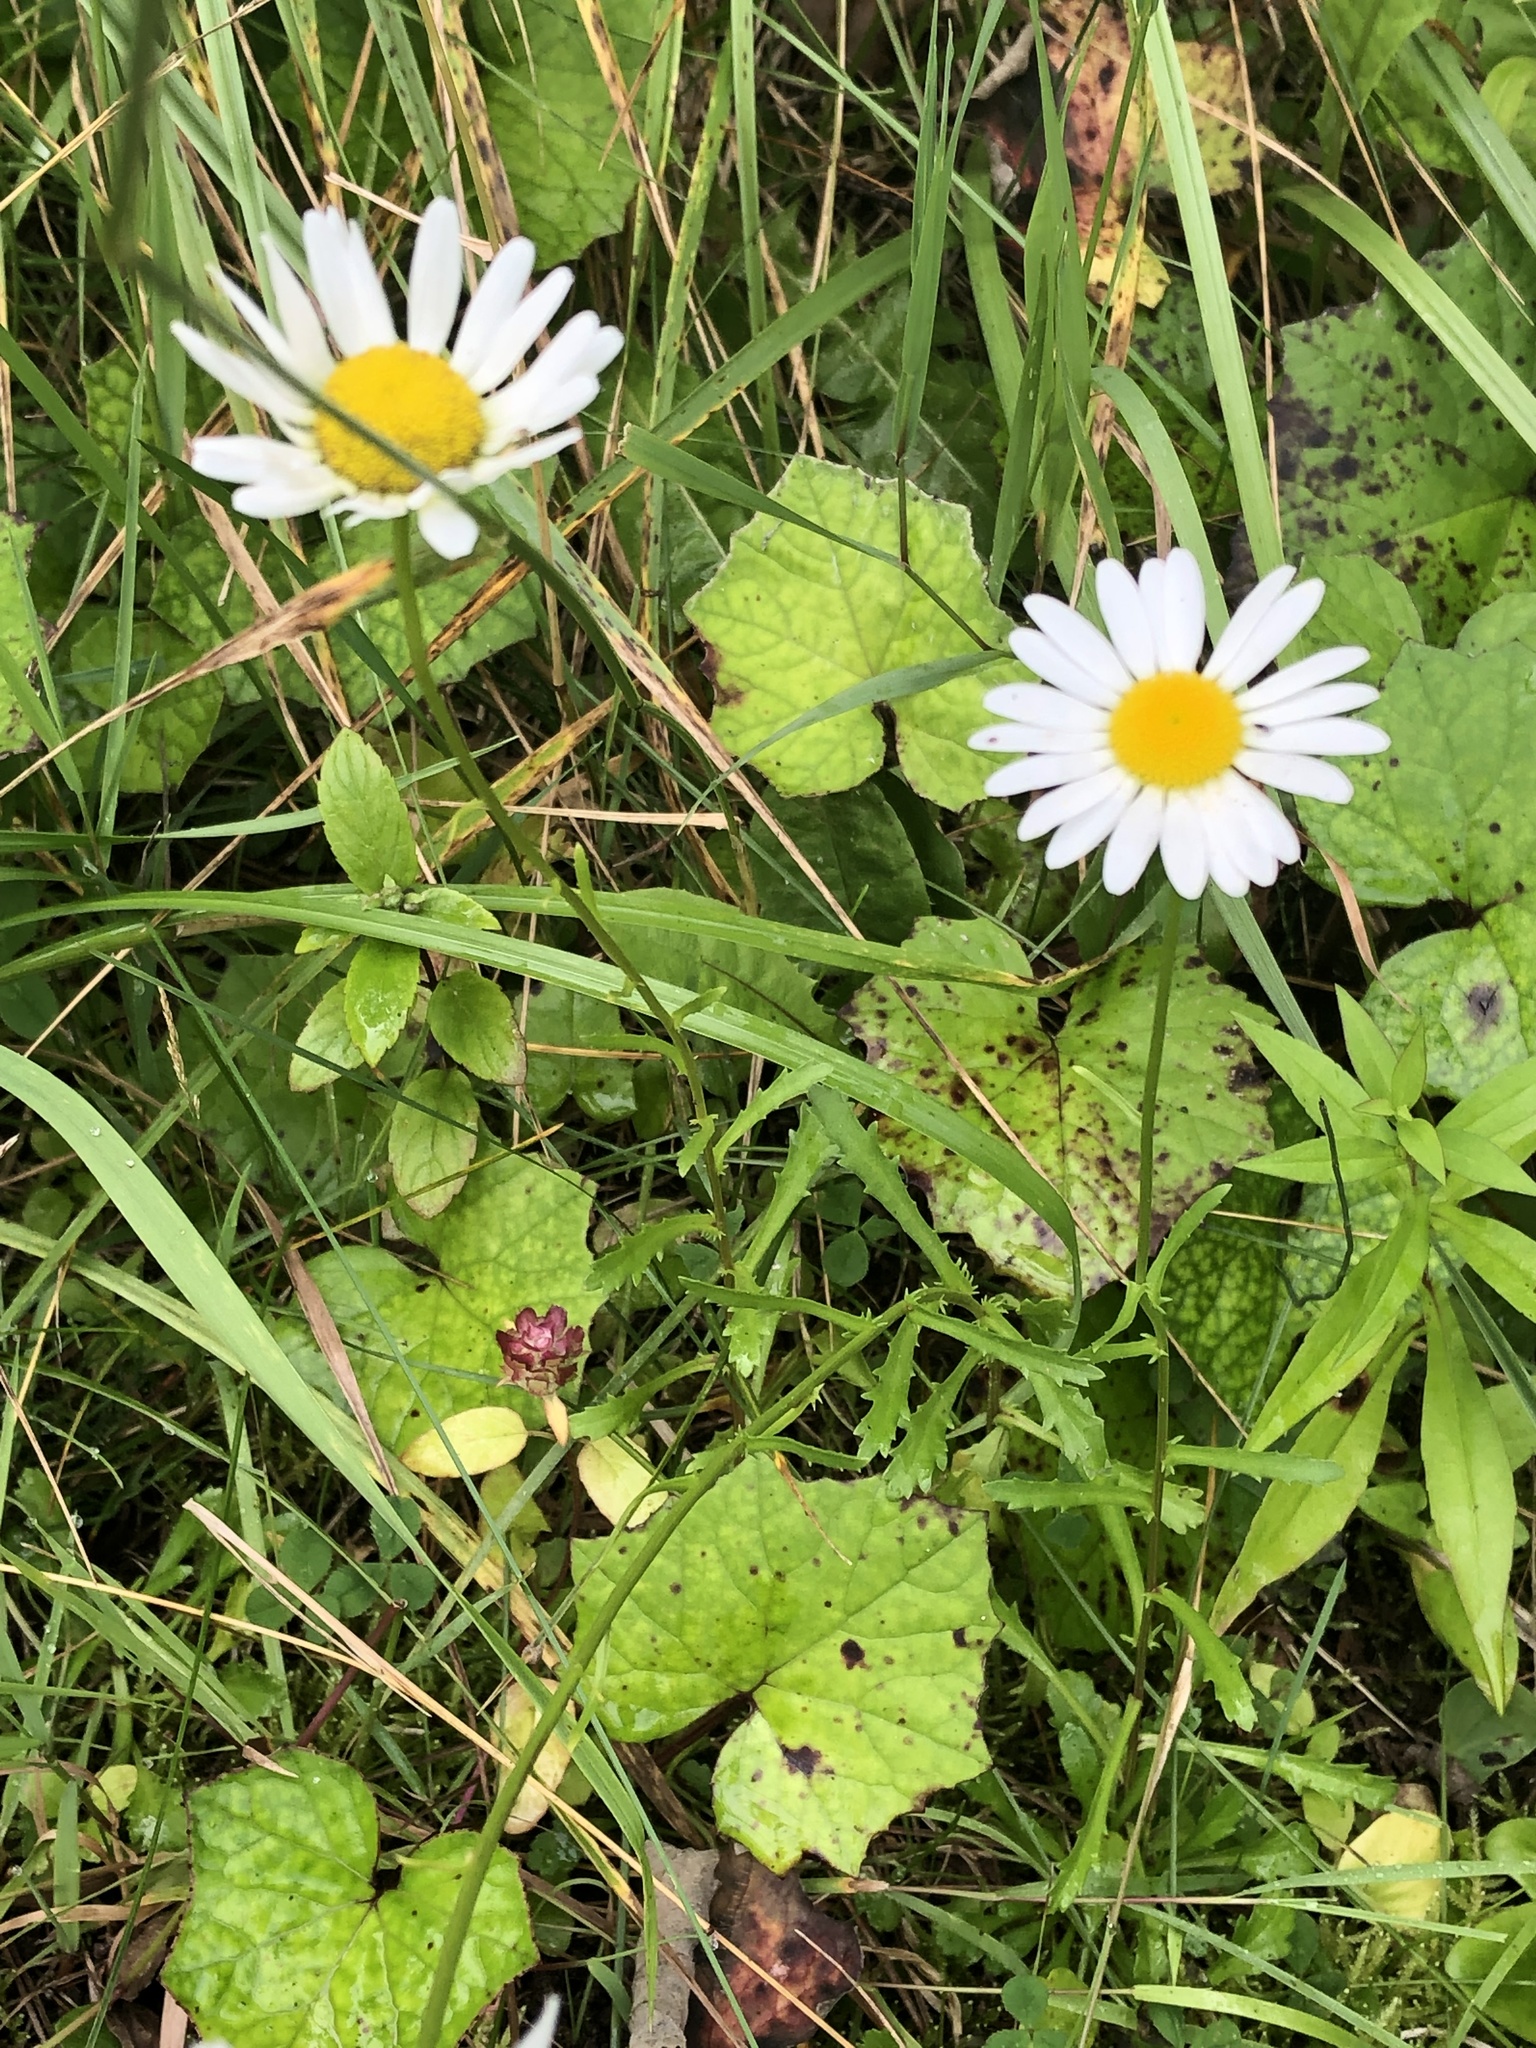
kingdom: Plantae
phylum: Tracheophyta
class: Magnoliopsida
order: Asterales
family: Asteraceae
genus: Leucanthemum
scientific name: Leucanthemum vulgare
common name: Oxeye daisy
